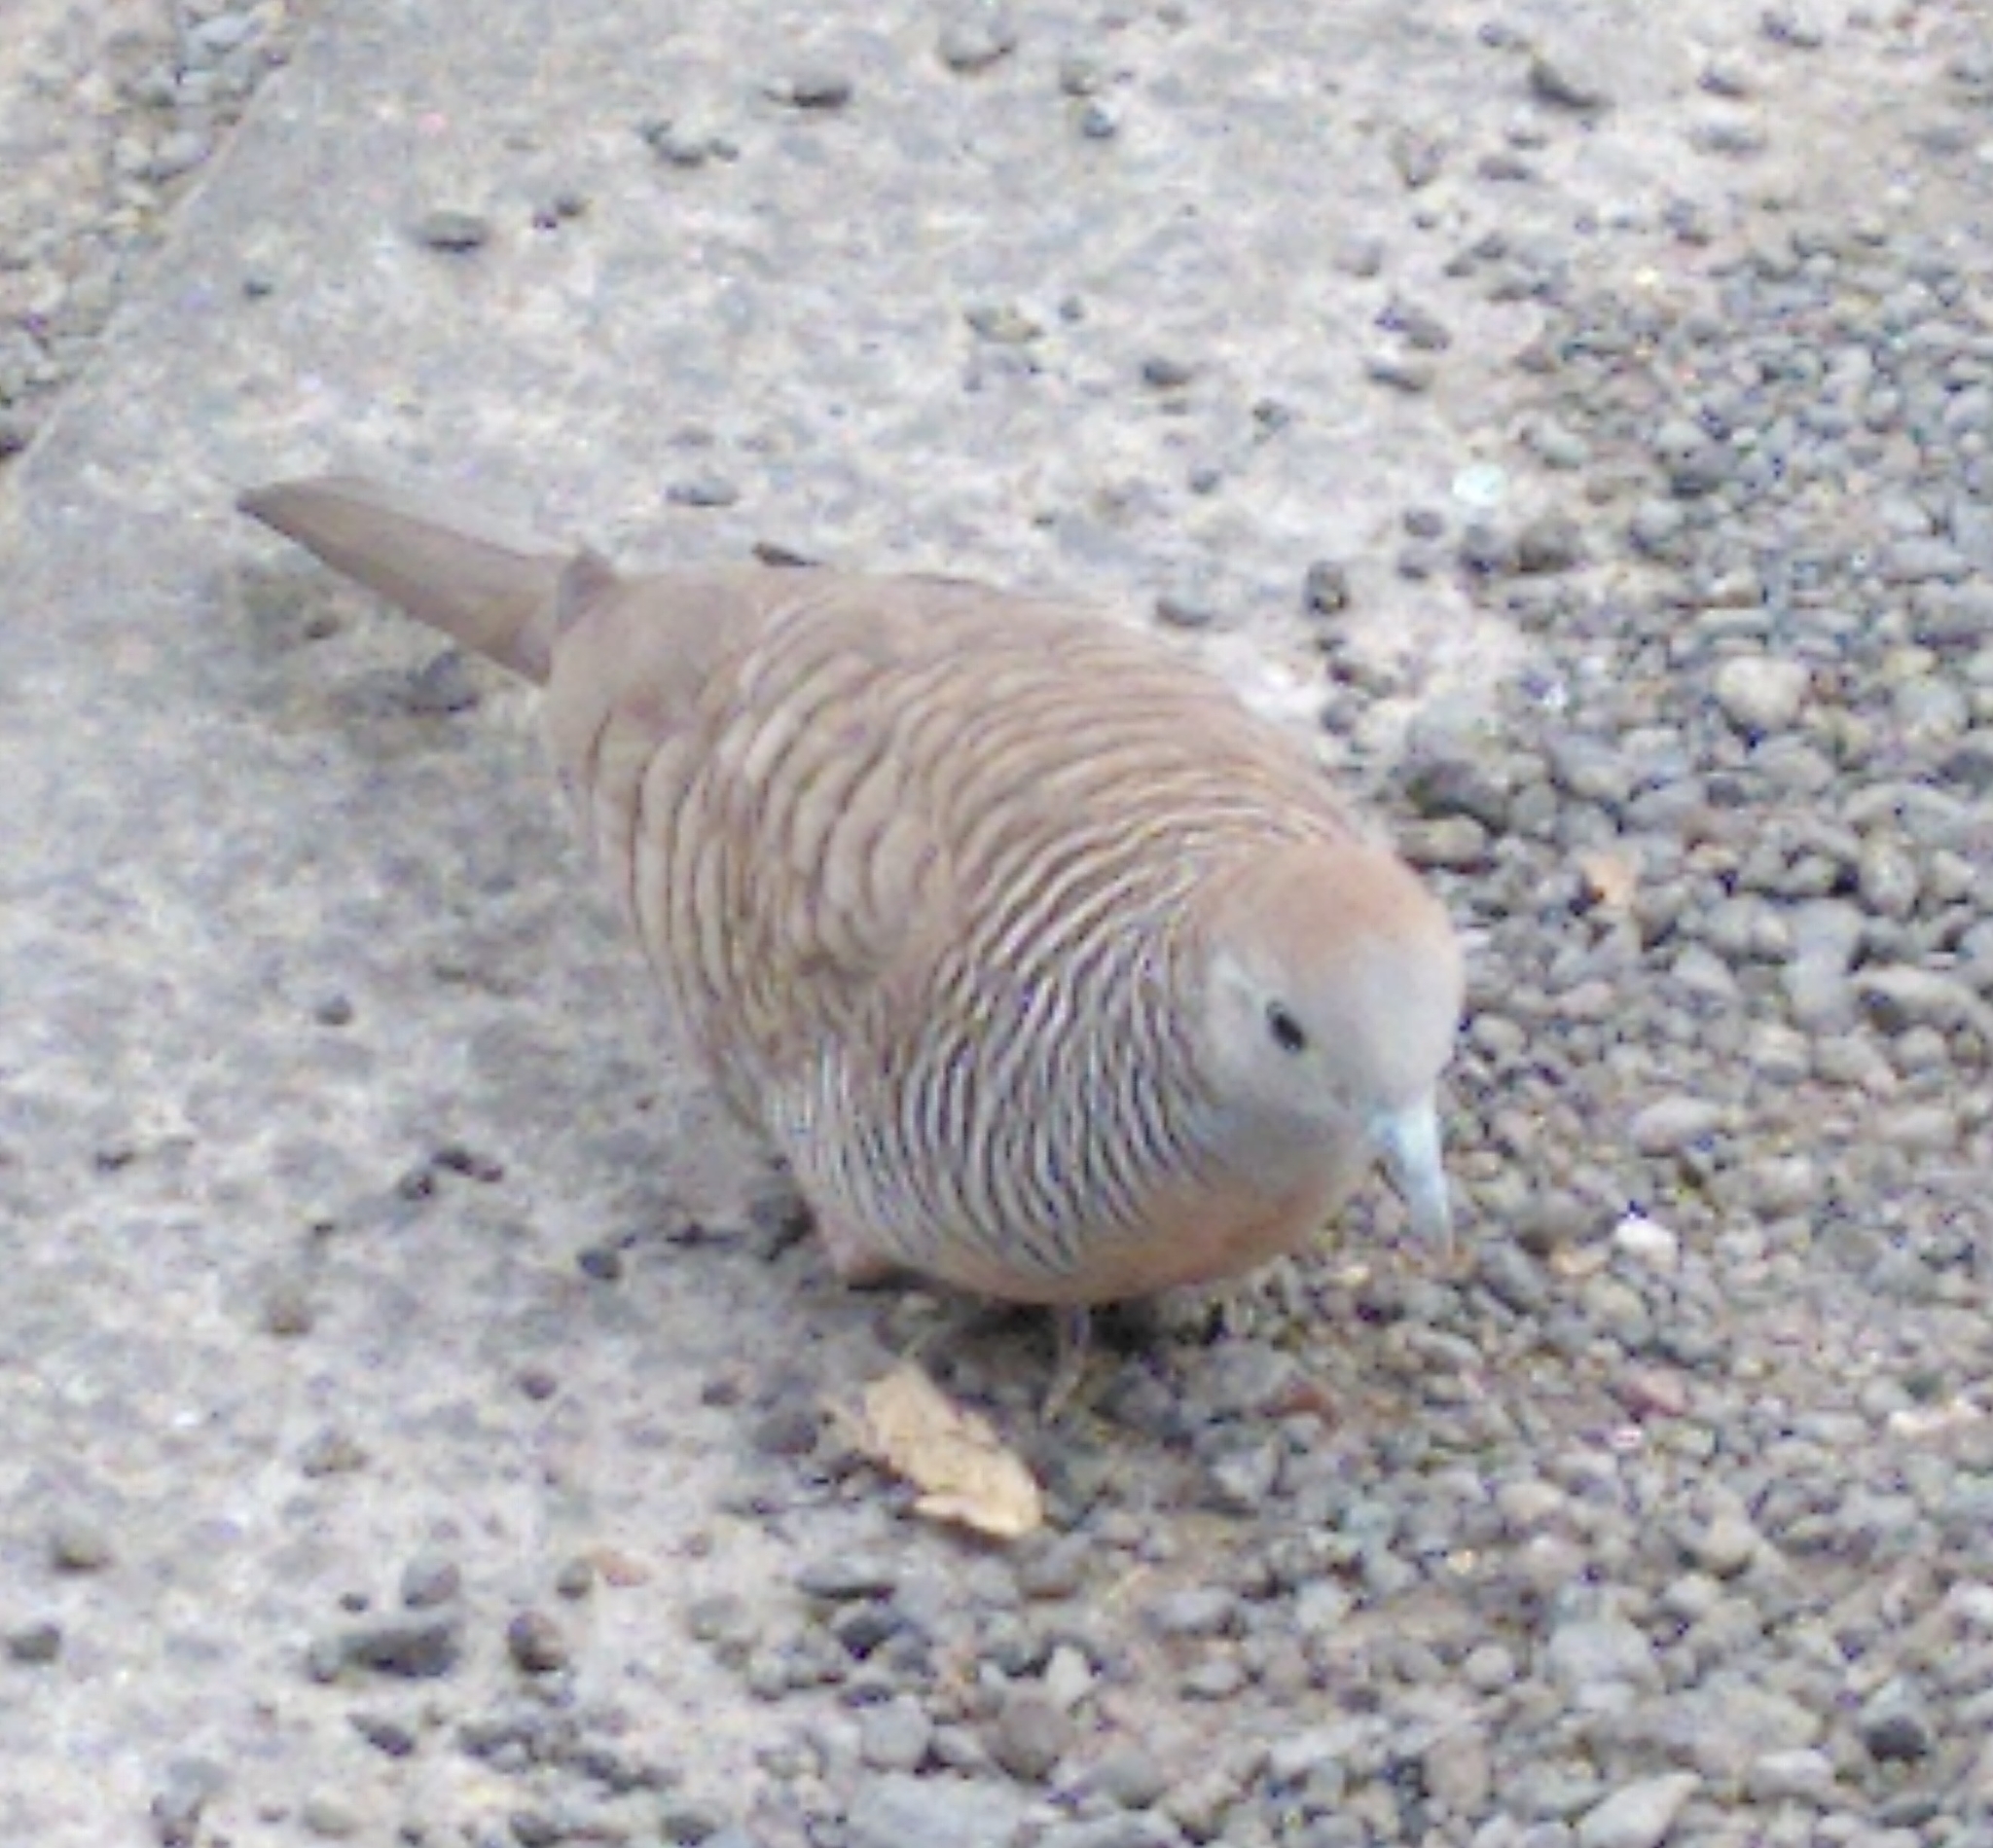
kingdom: Animalia
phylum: Chordata
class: Aves
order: Columbiformes
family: Columbidae
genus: Geopelia
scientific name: Geopelia striata
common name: Zebra dove
